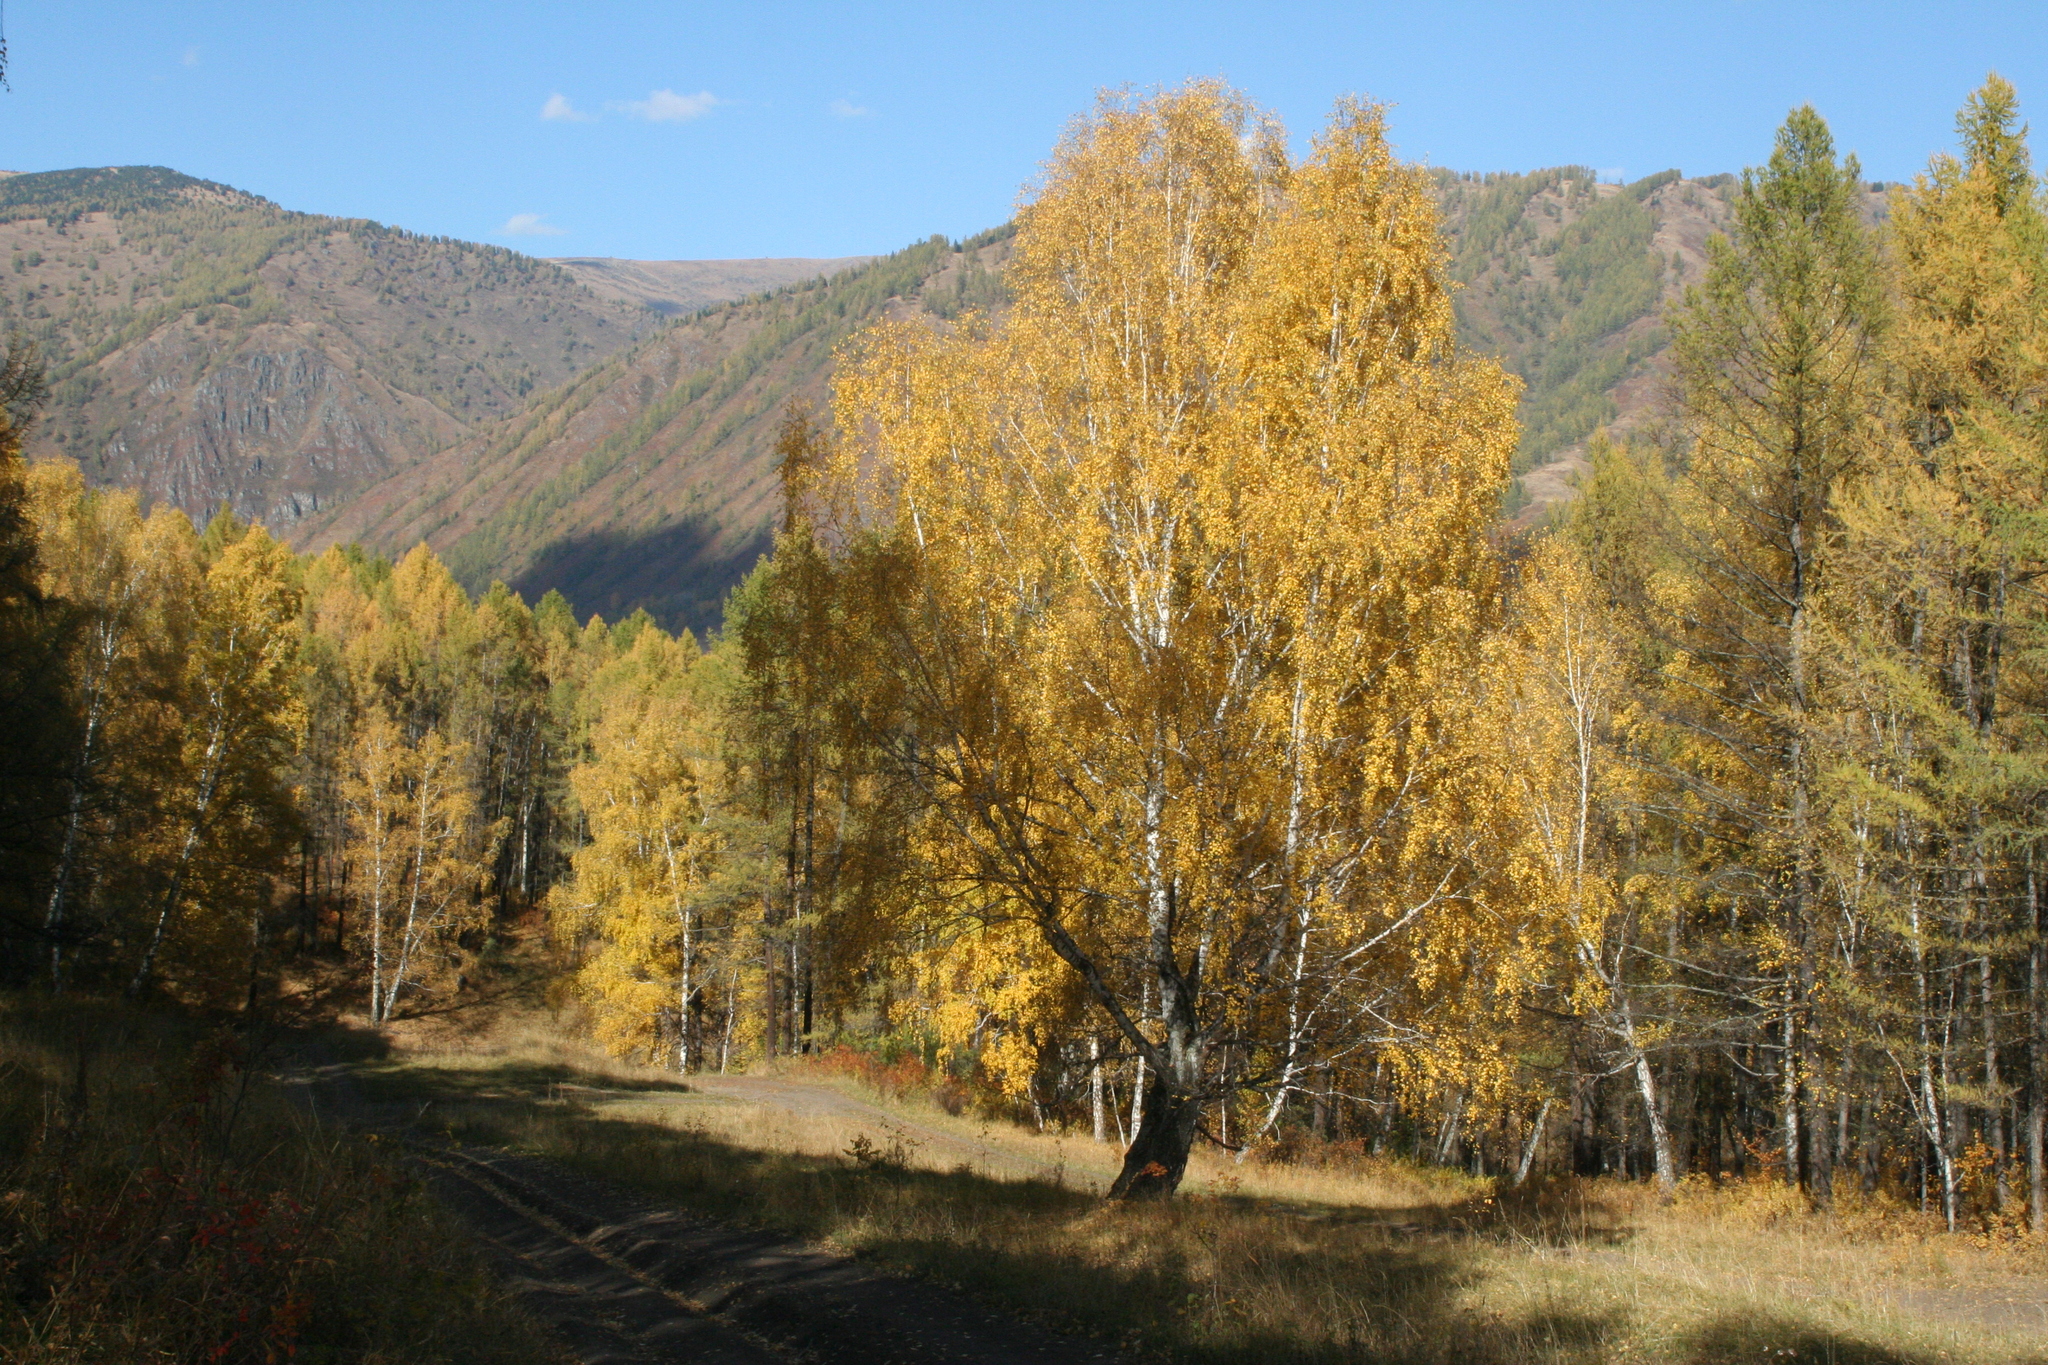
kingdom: Plantae
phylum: Tracheophyta
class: Magnoliopsida
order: Fagales
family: Betulaceae
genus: Betula
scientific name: Betula pendula
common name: Silver birch
